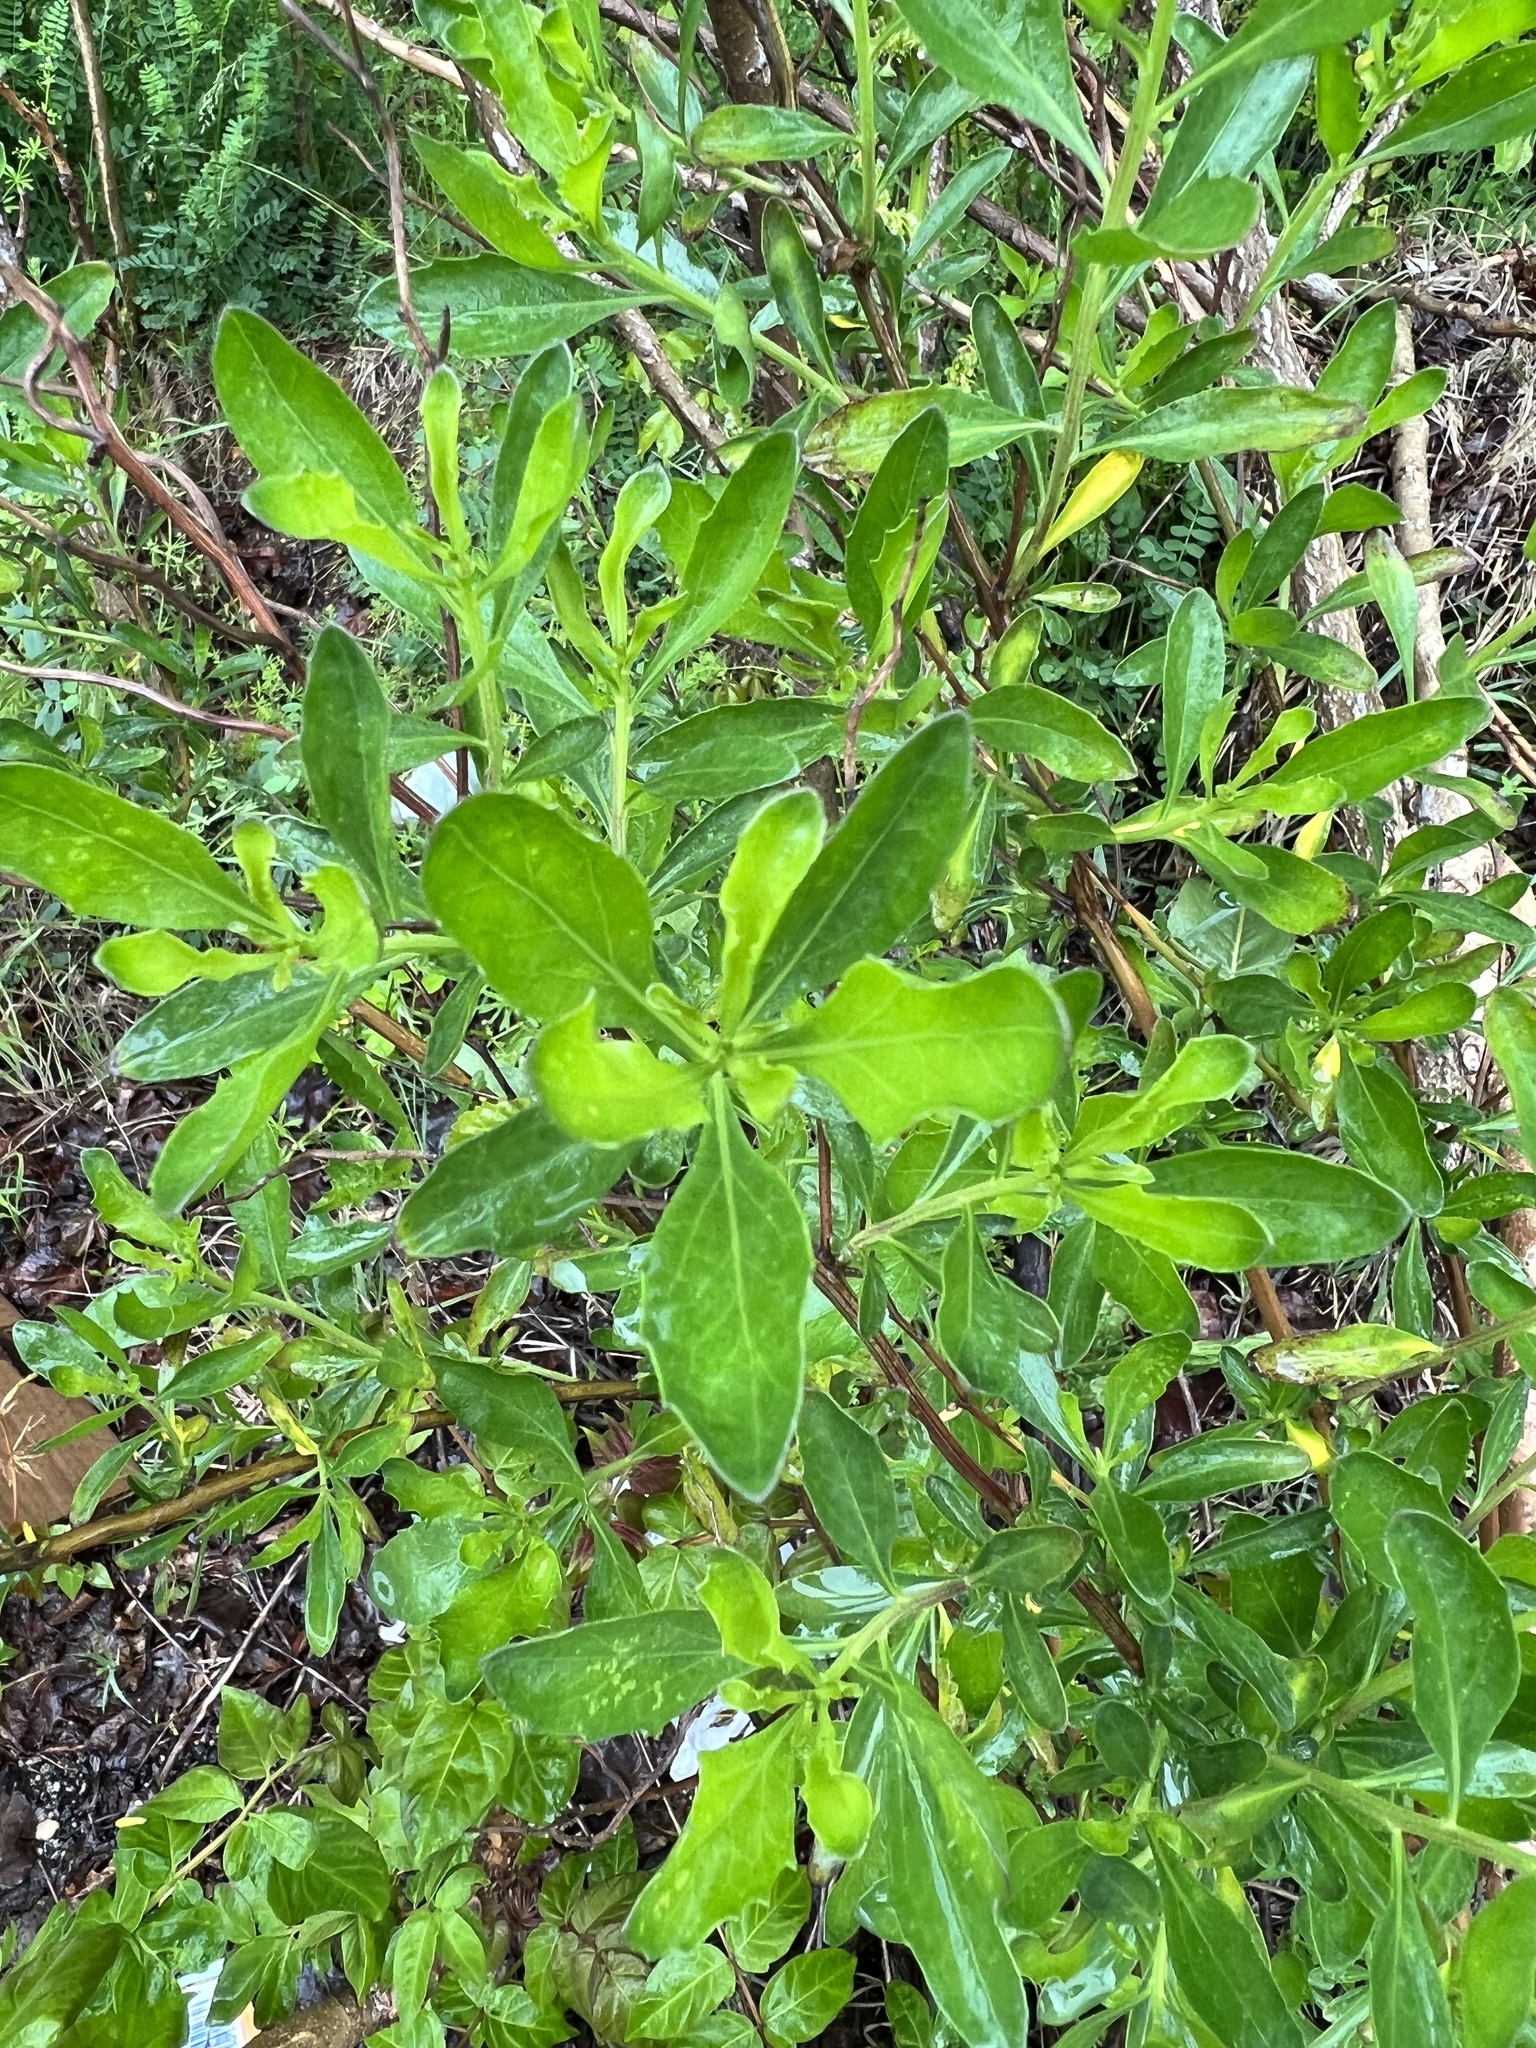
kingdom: Plantae
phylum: Tracheophyta
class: Magnoliopsida
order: Asterales
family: Asteraceae
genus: Baccharis
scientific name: Baccharis halimifolia
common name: Eastern baccharis
